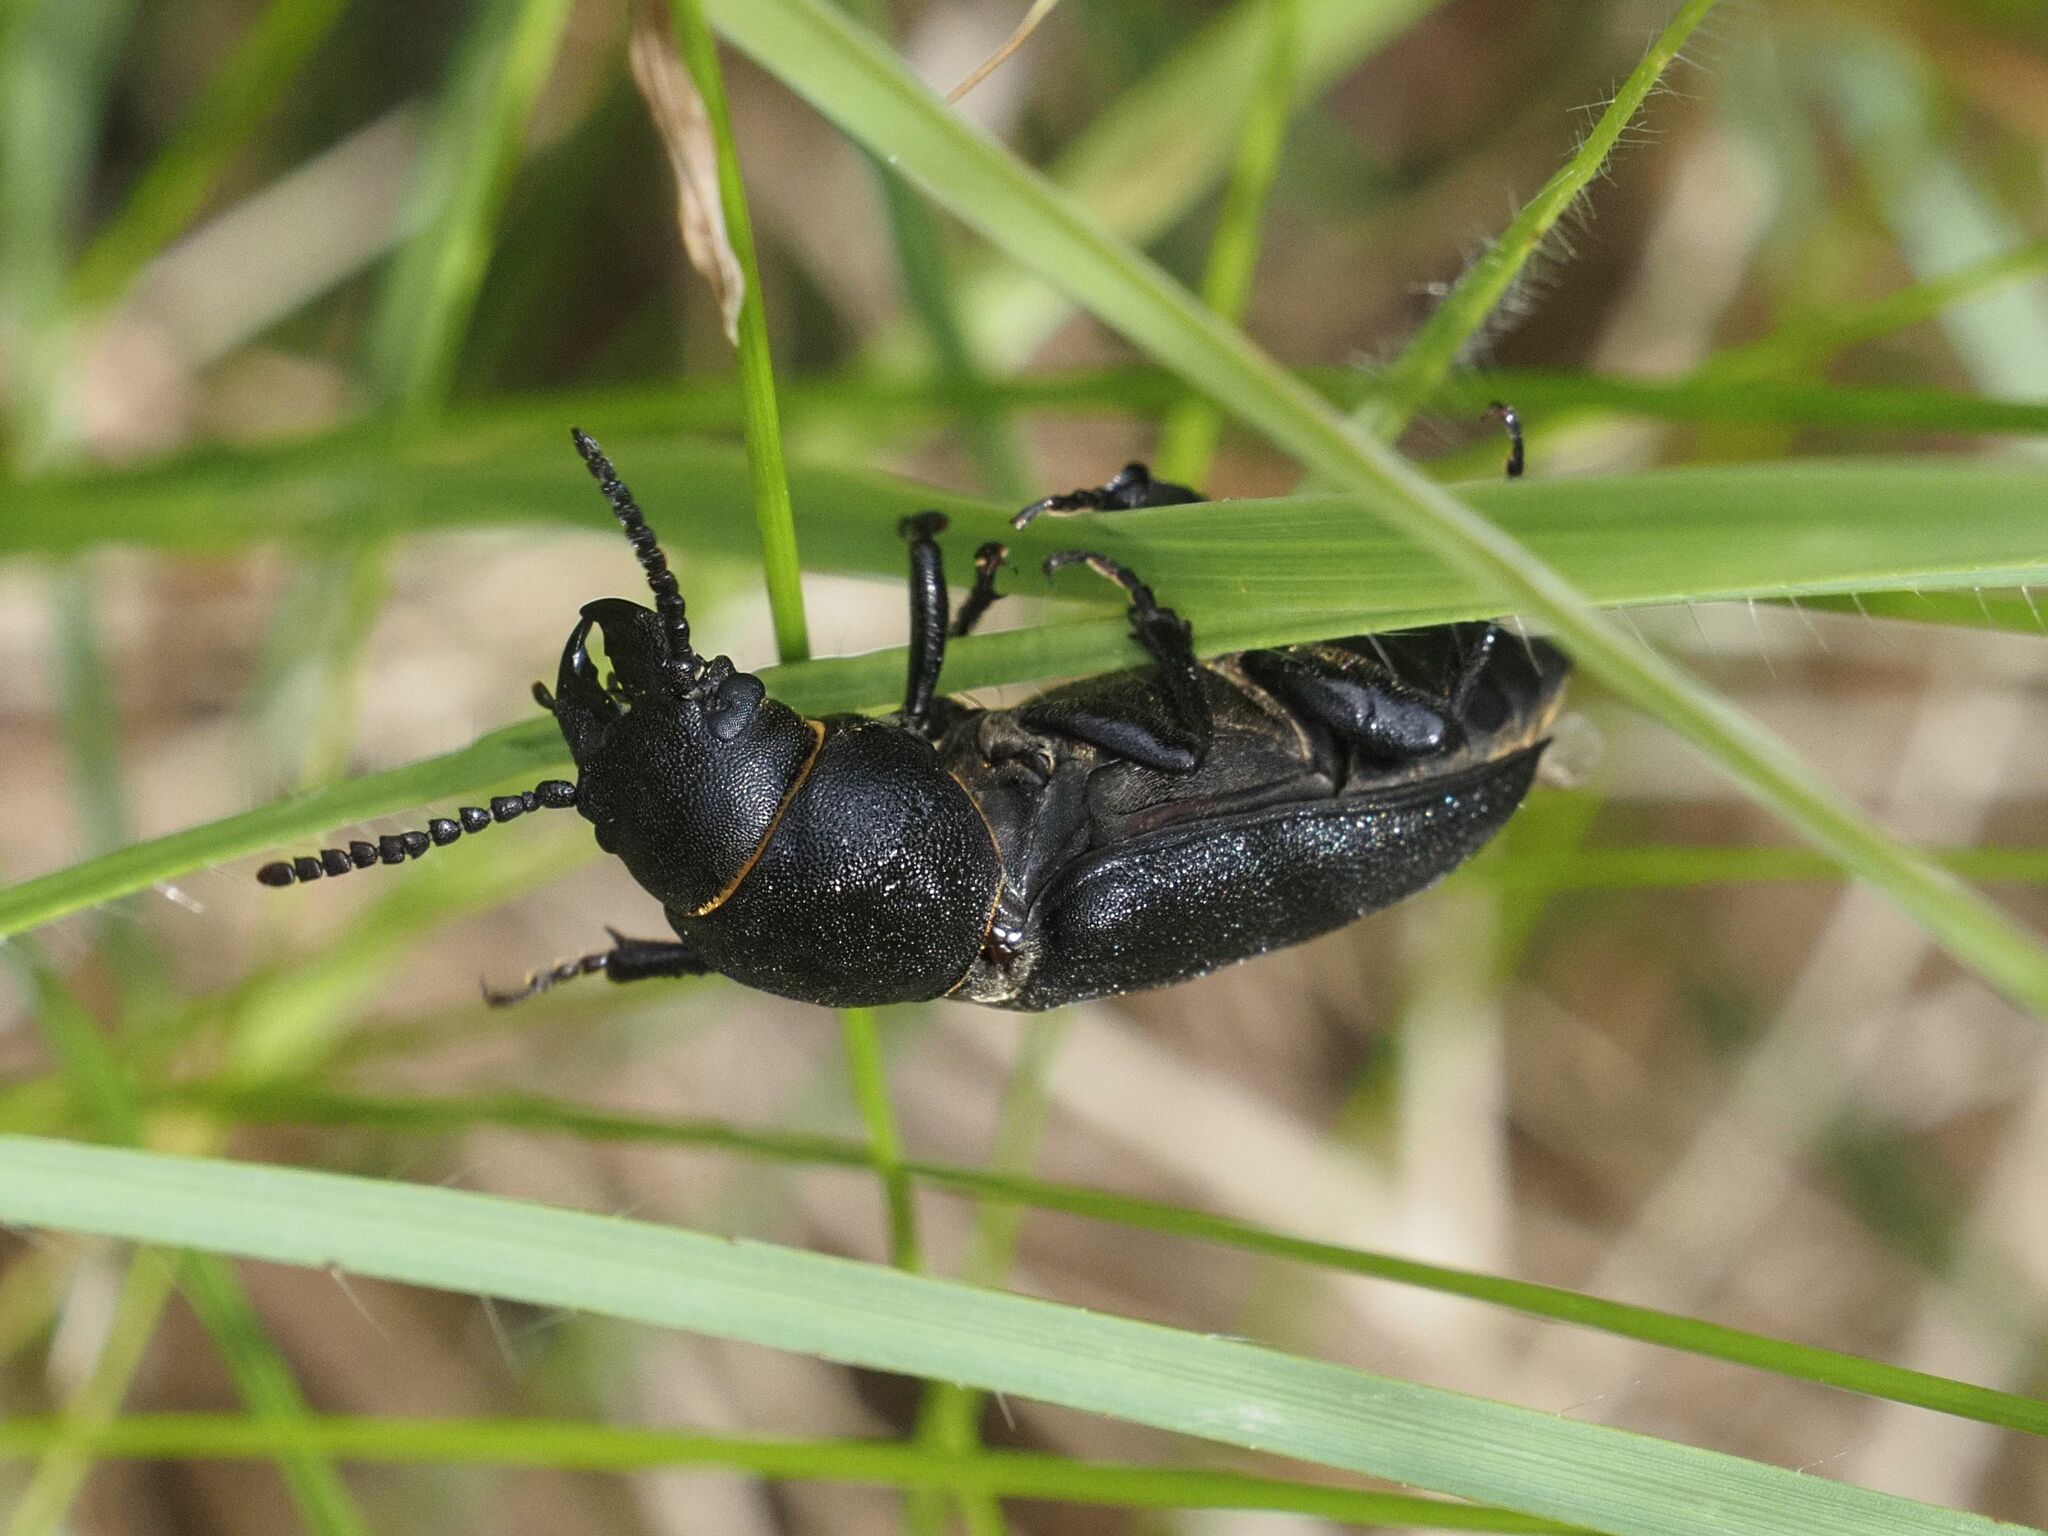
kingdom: Animalia
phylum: Arthropoda
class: Insecta
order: Coleoptera
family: Cerambycidae
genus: Spondylis
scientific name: Spondylis buprestoides
